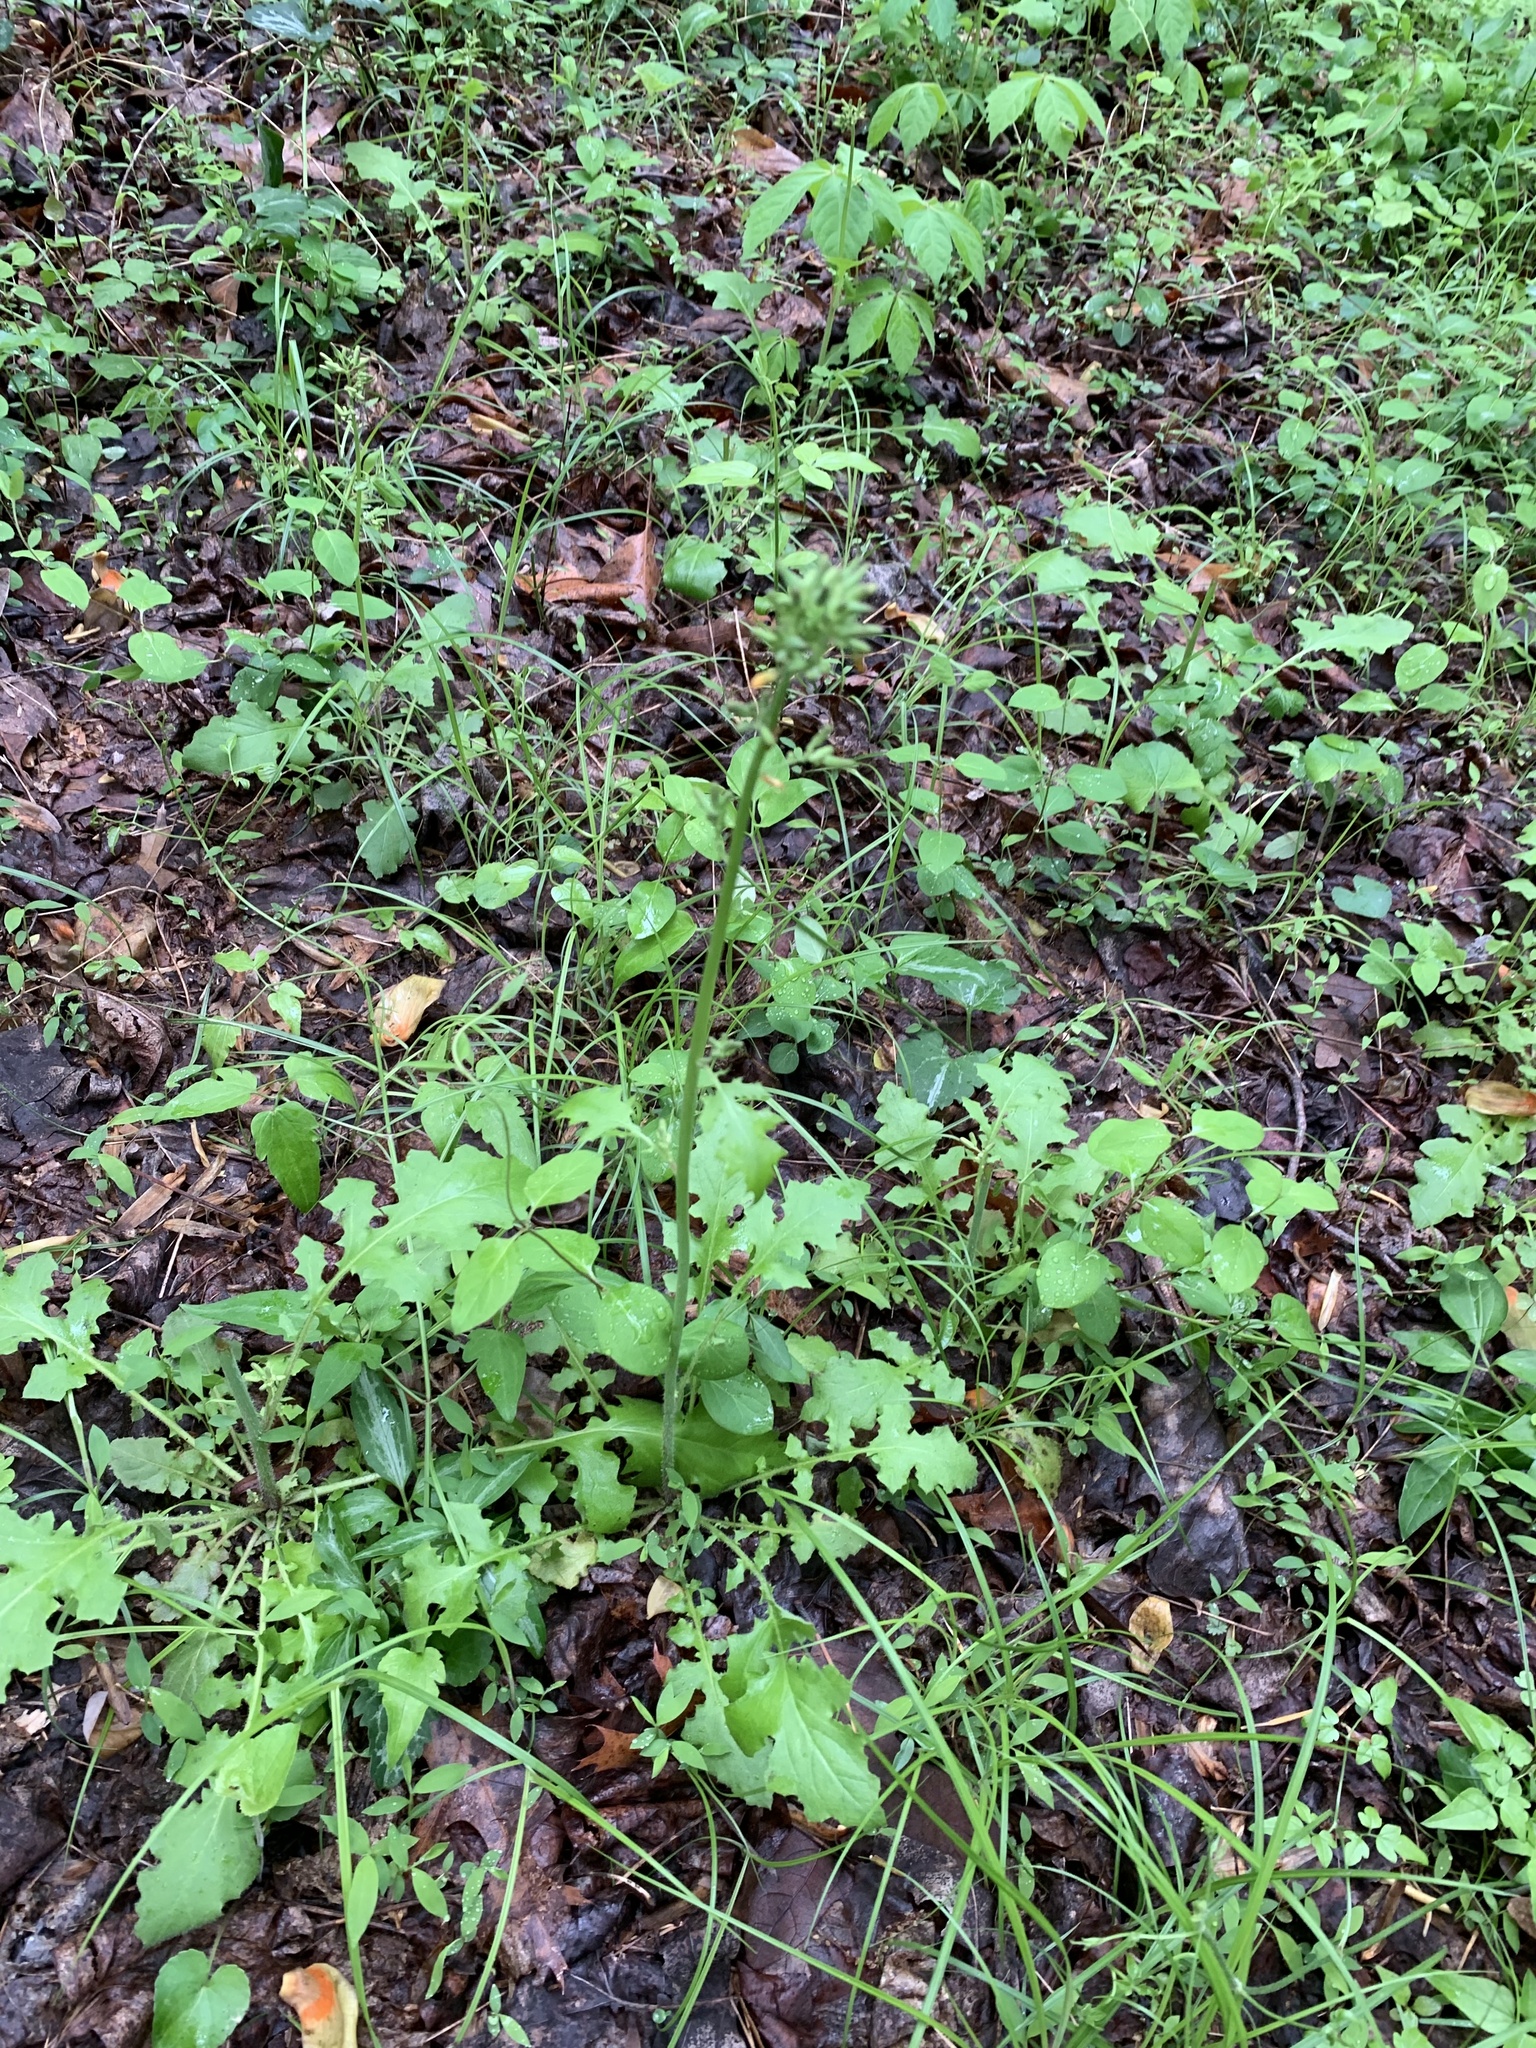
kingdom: Plantae
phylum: Tracheophyta
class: Magnoliopsida
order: Asterales
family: Asteraceae
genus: Youngia
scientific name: Youngia japonica
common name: Oriental false hawksbeard
